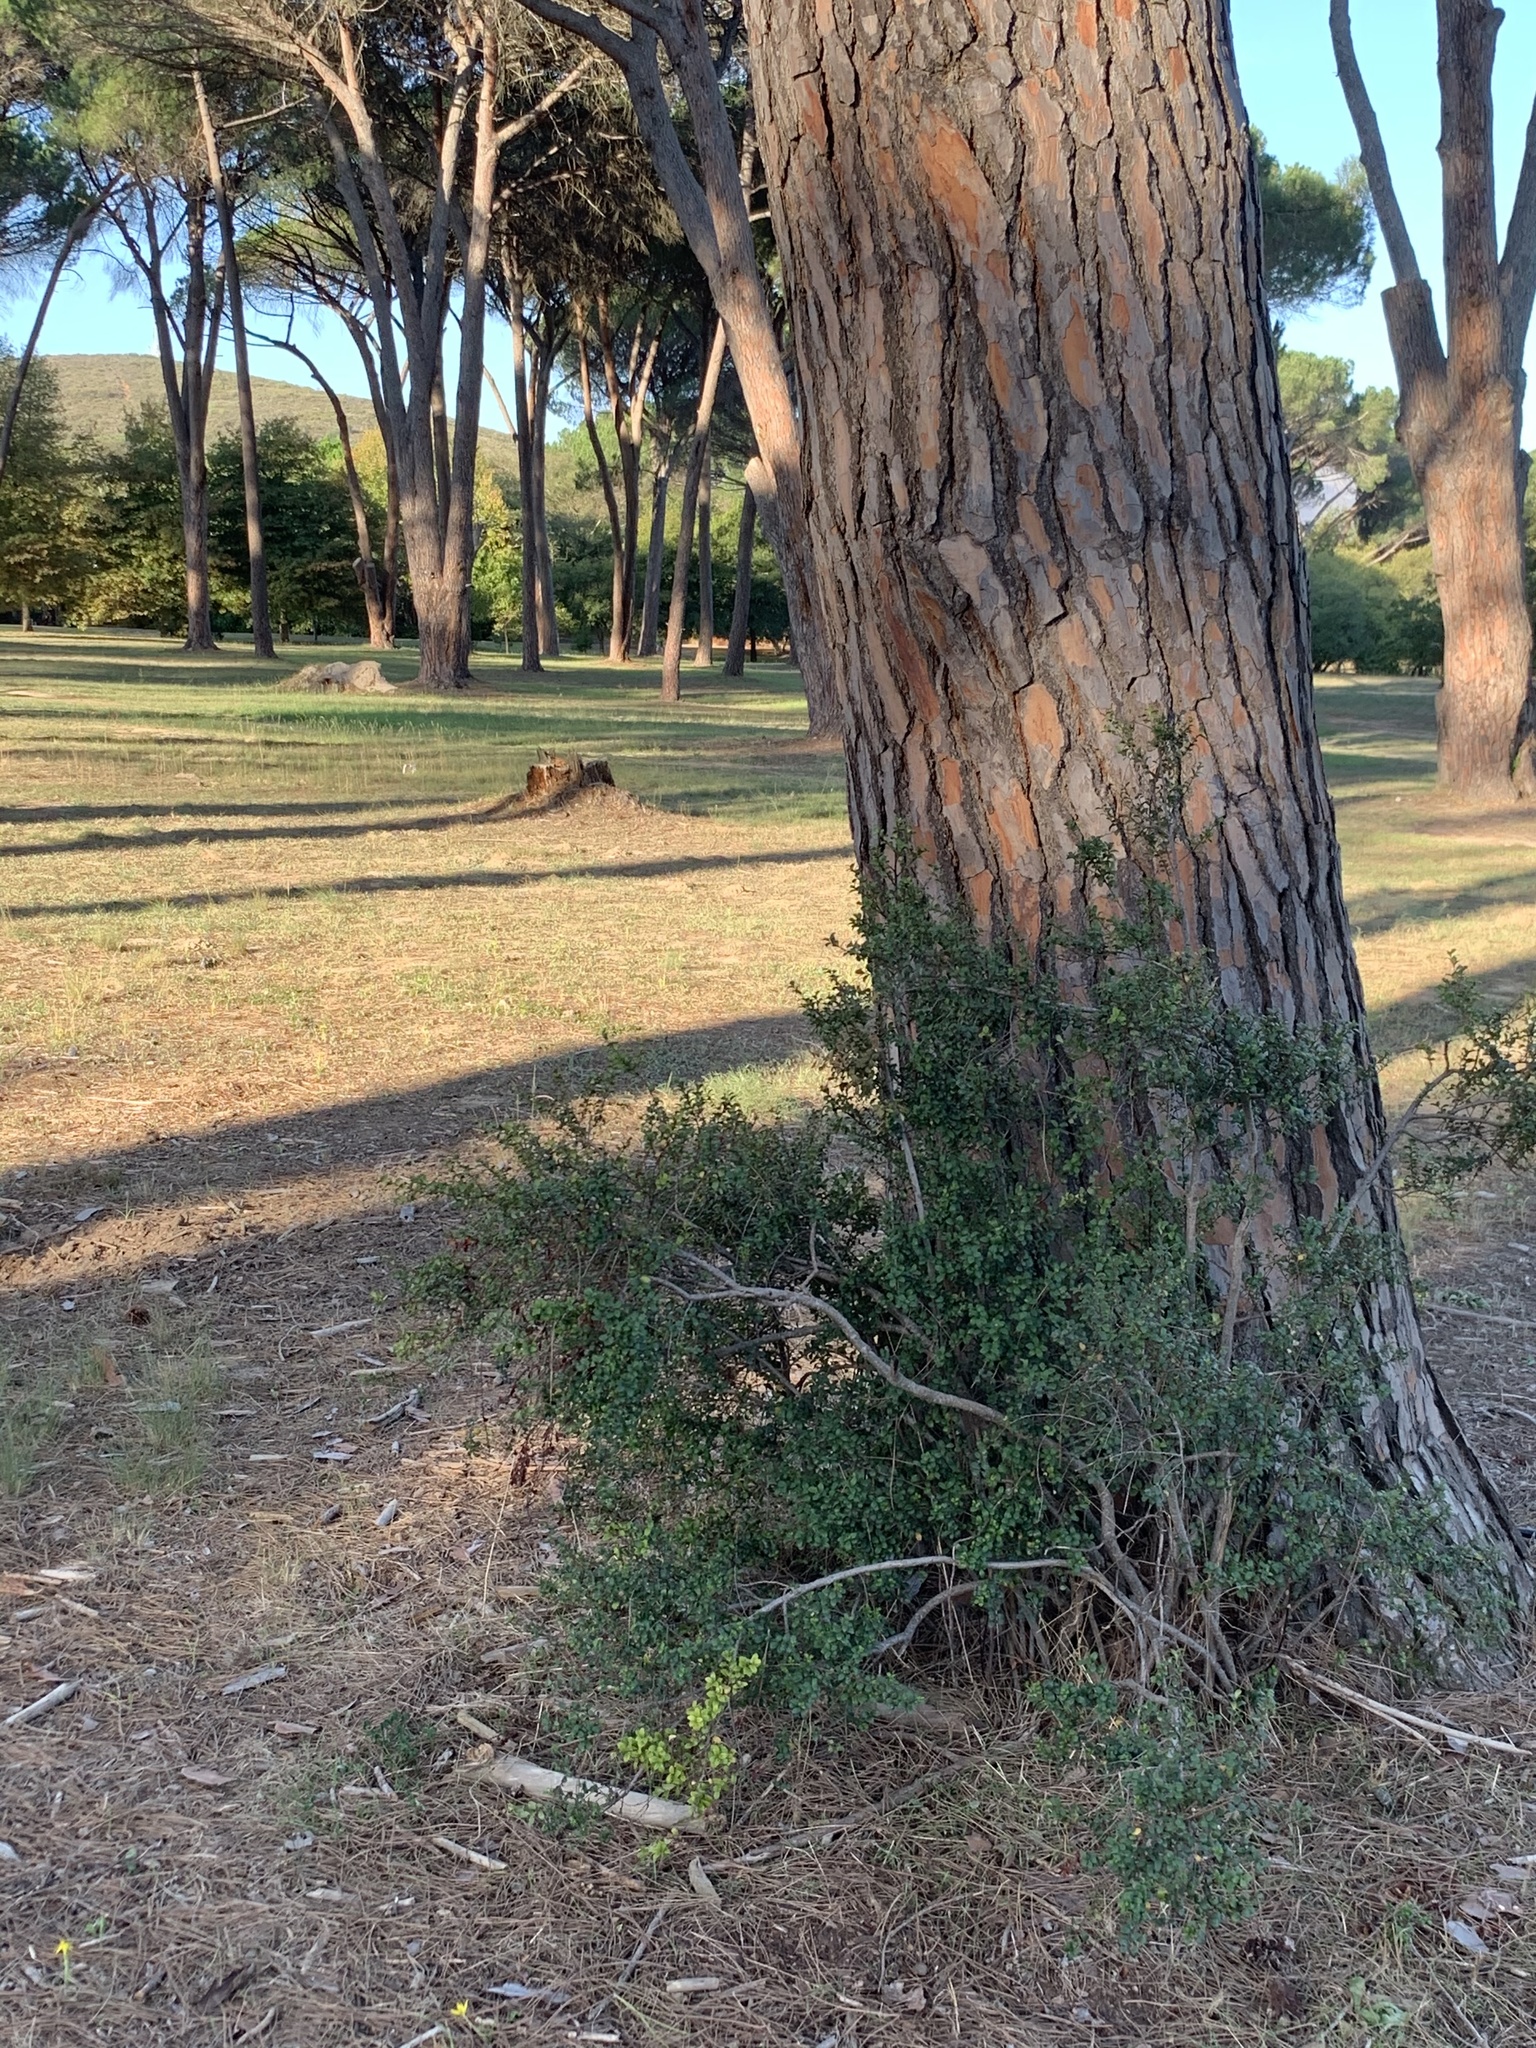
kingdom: Plantae
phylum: Tracheophyta
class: Magnoliopsida
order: Ericales
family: Primulaceae
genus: Myrsine
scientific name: Myrsine africana
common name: African-boxwood
